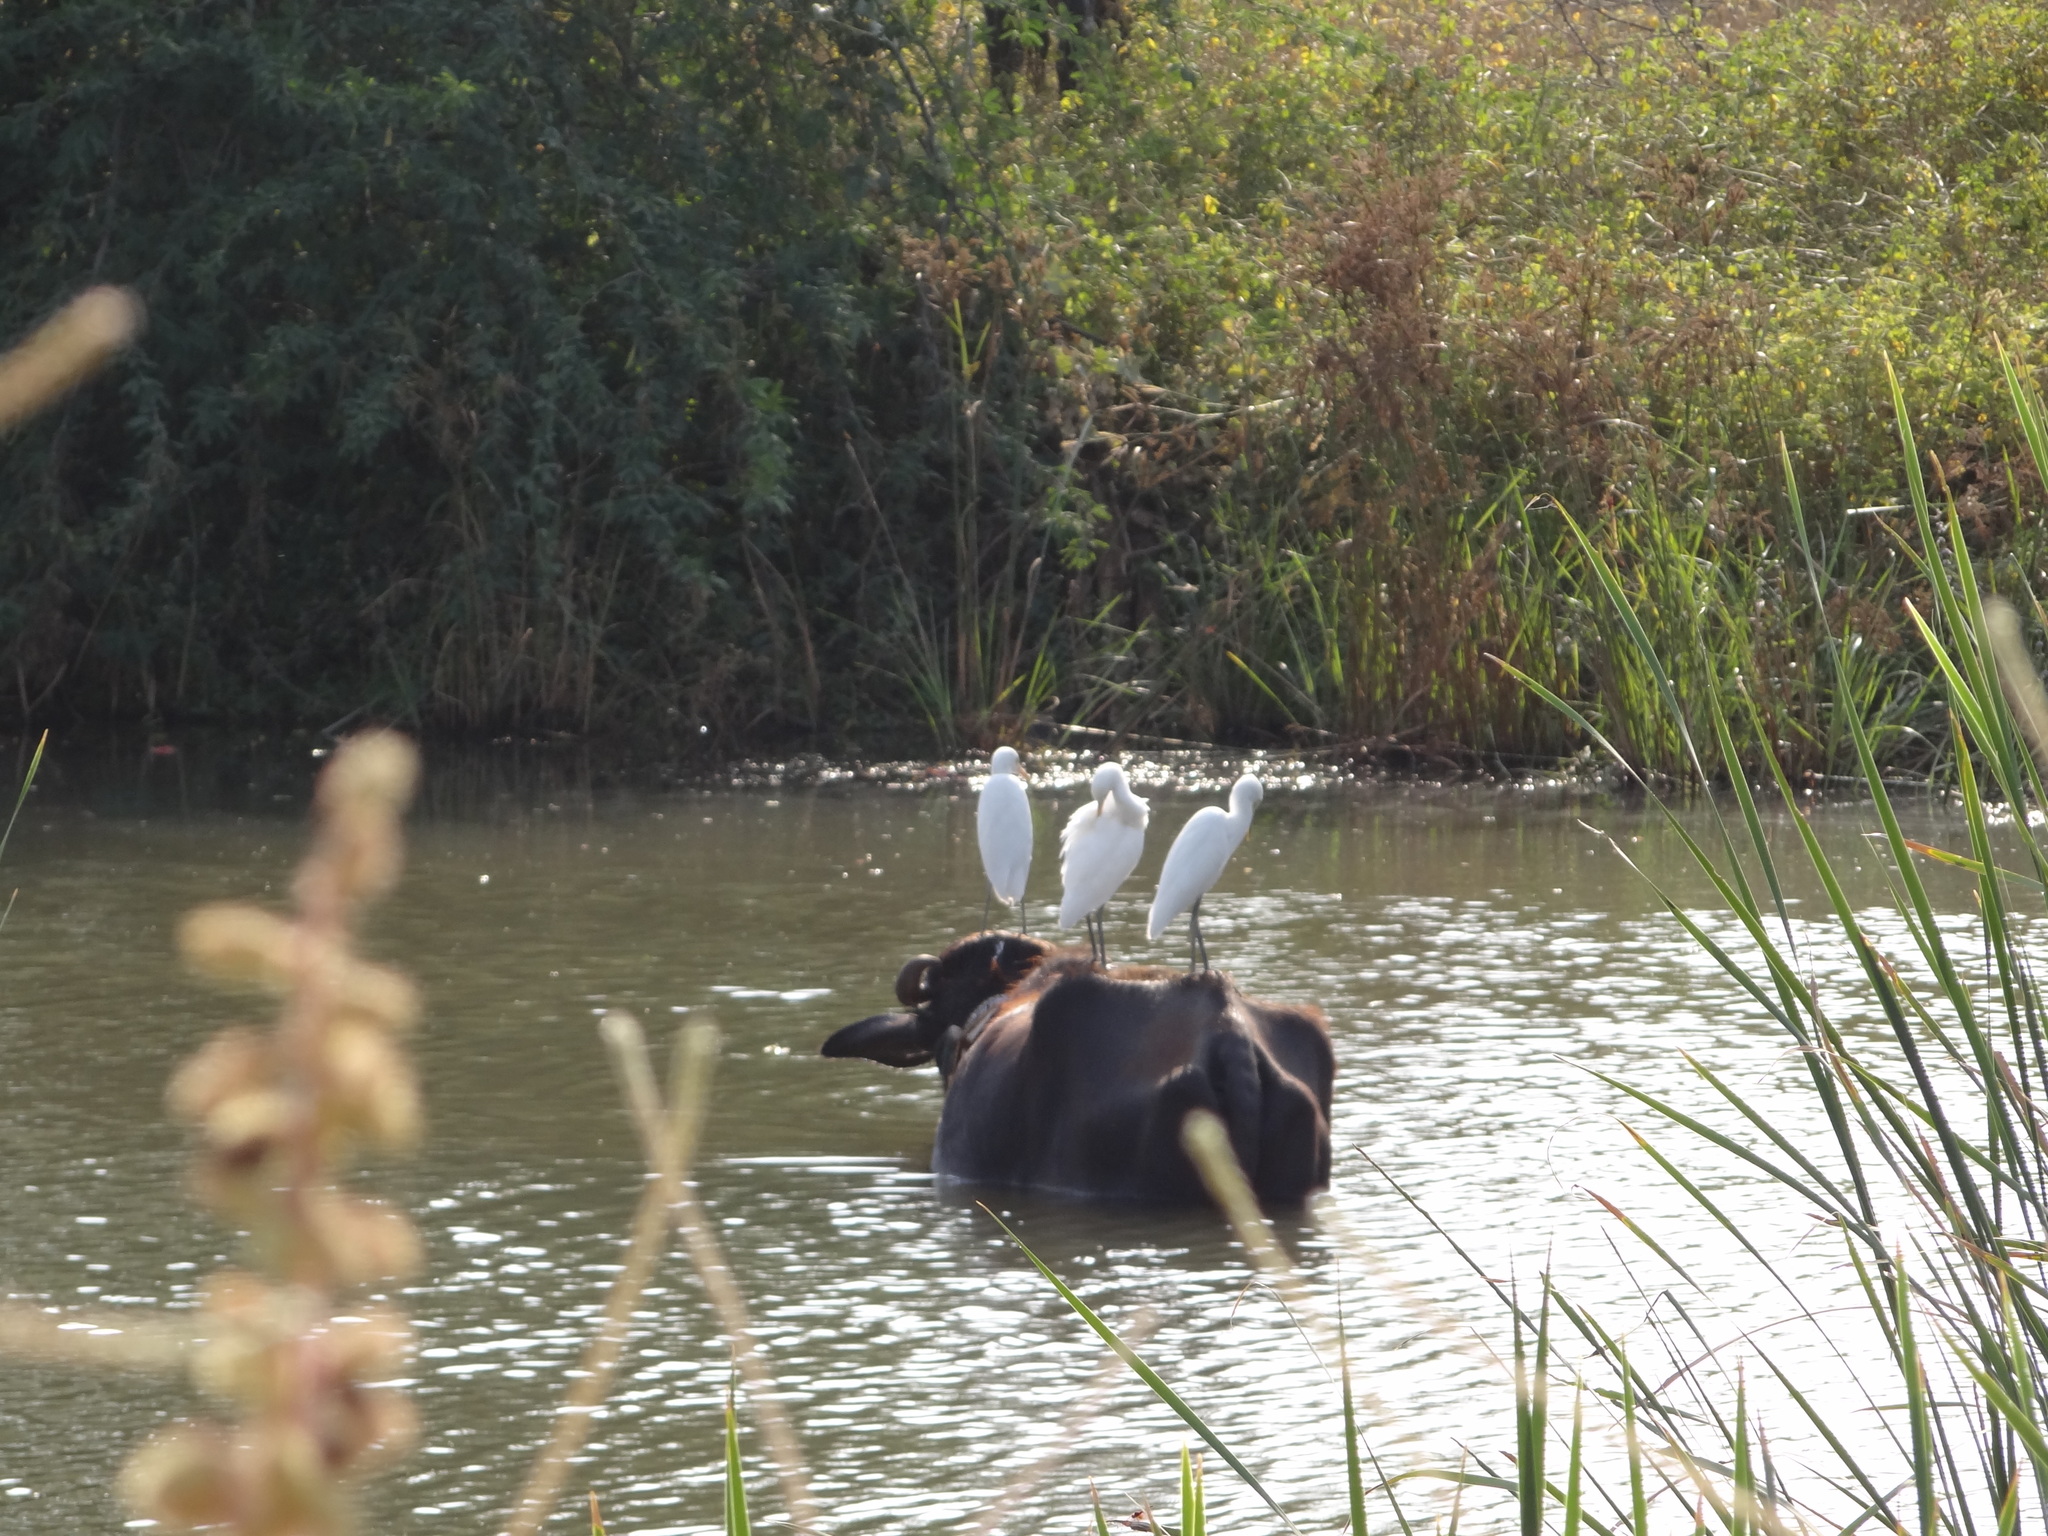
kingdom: Animalia
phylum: Chordata
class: Aves
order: Pelecaniformes
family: Ardeidae
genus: Bubulcus
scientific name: Bubulcus coromandus
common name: Eastern cattle egret
